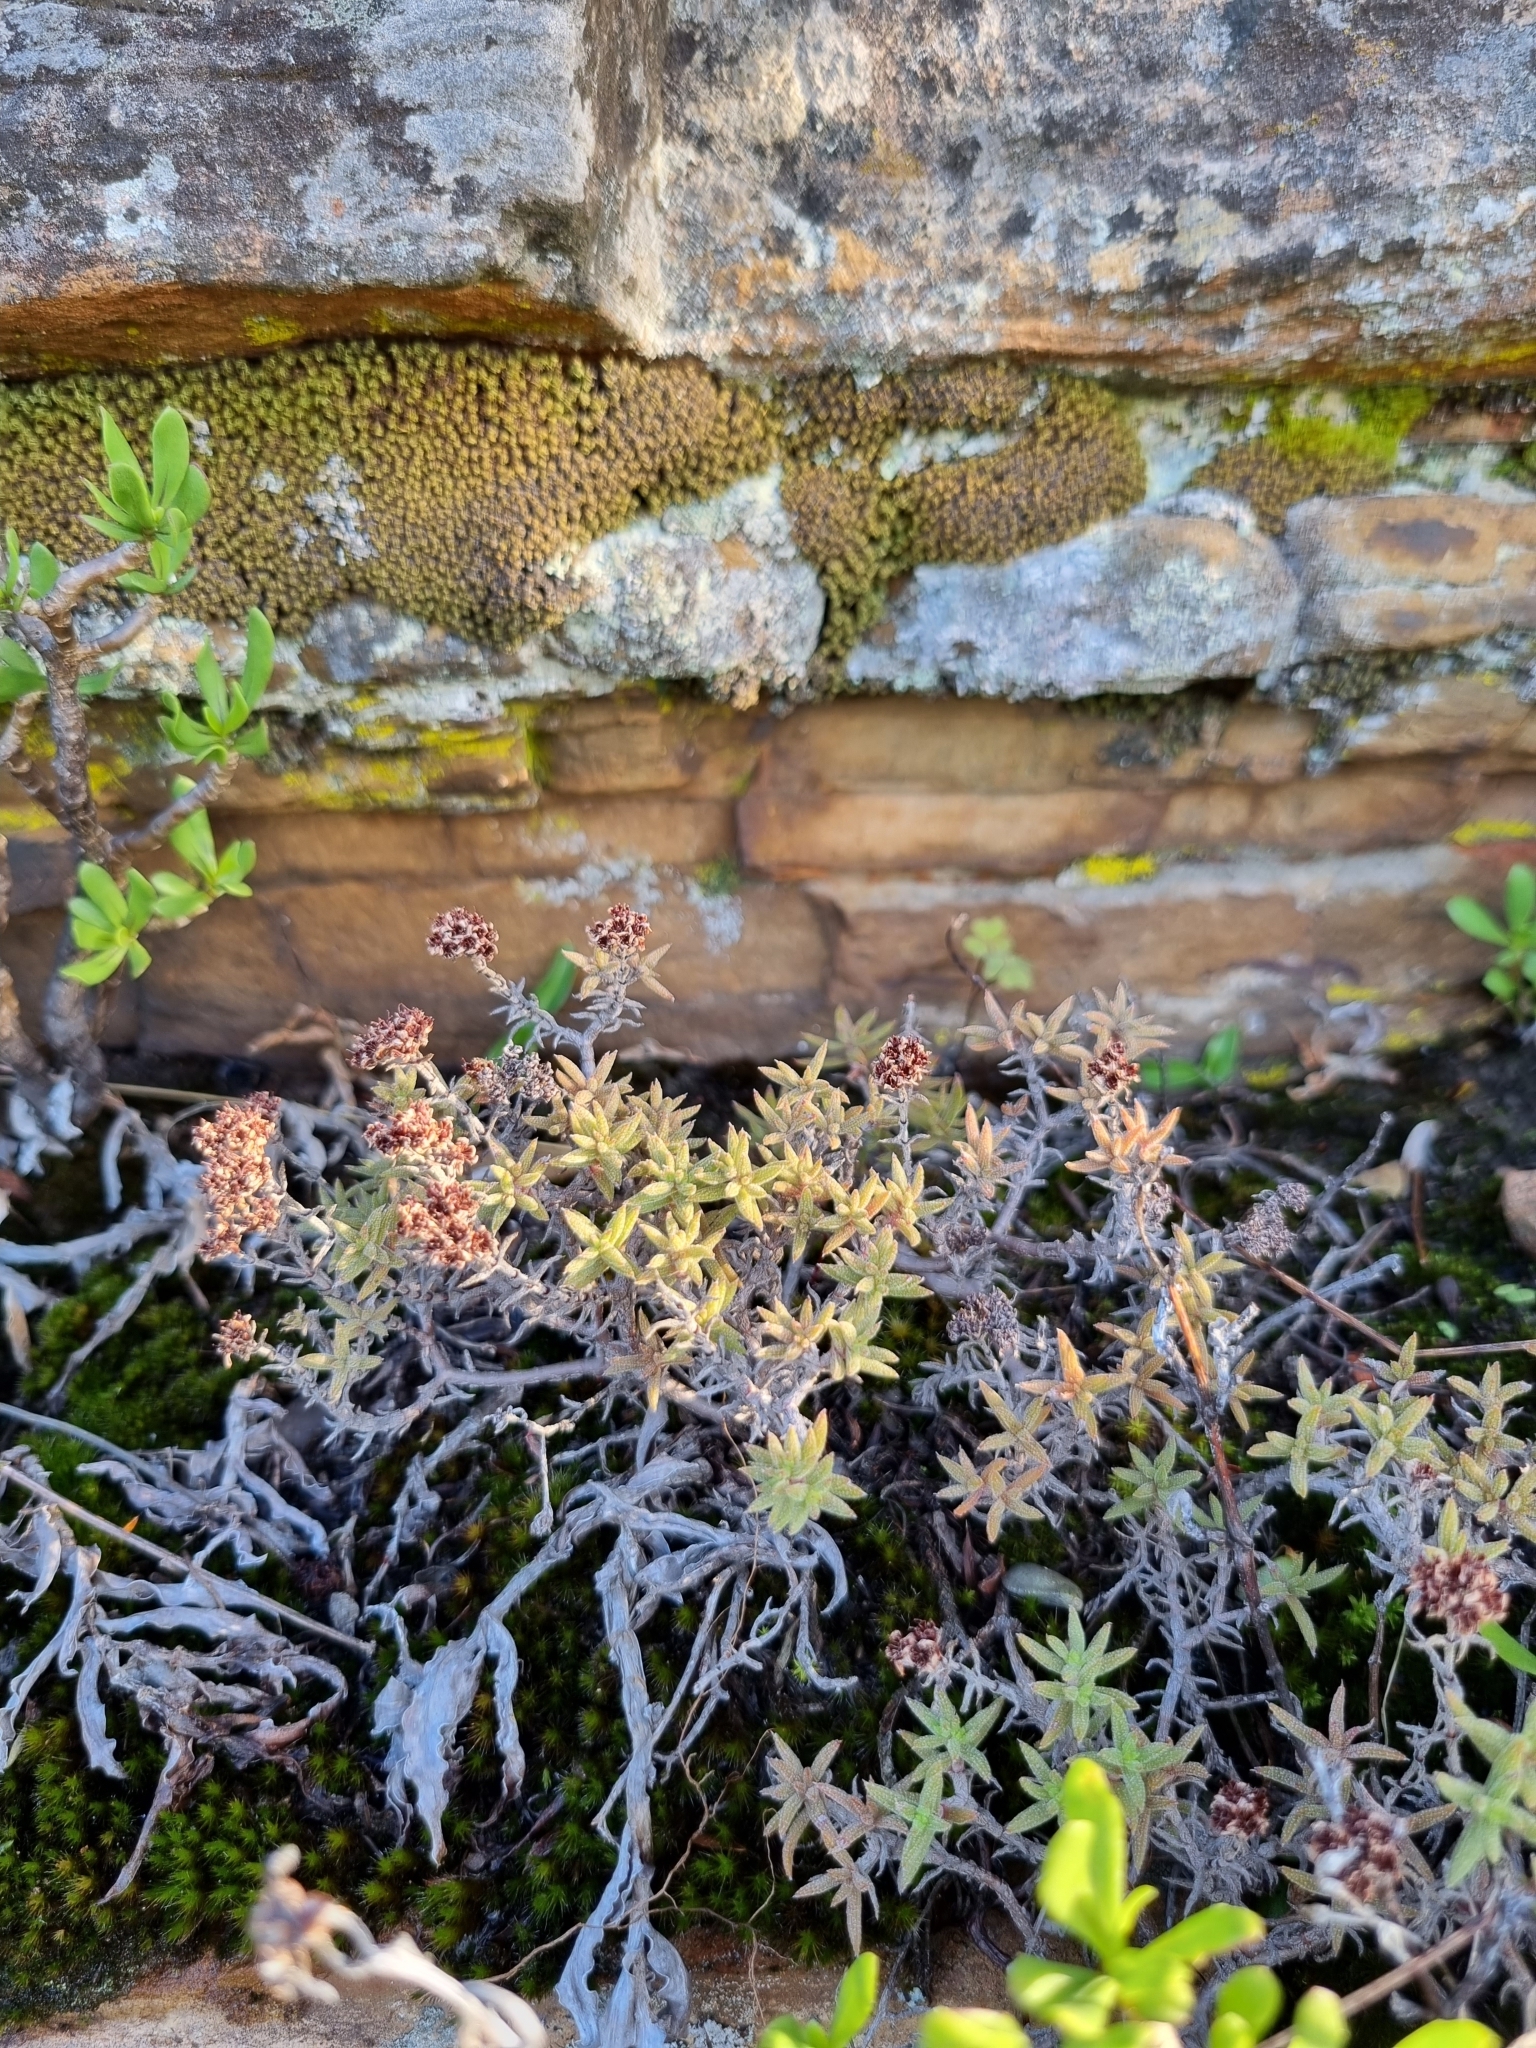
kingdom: Plantae
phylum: Tracheophyta
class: Magnoliopsida
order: Saxifragales
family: Crassulaceae
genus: Crassula
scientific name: Crassula pruinosa
